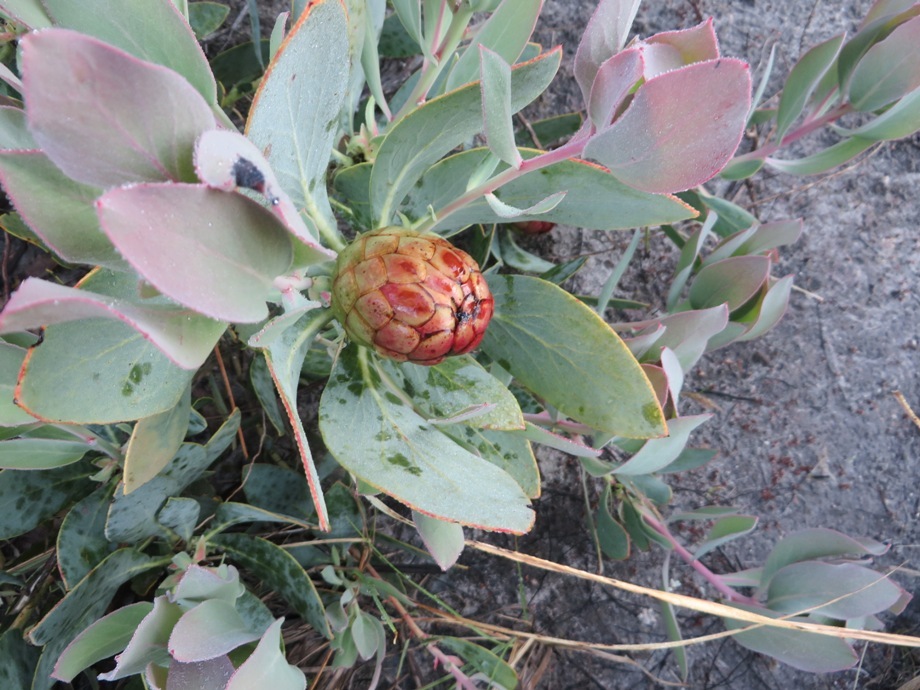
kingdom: Plantae
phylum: Tracheophyta
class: Magnoliopsida
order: Proteales
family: Proteaceae
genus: Protea
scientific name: Protea recondita
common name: Hidden sugarbush
